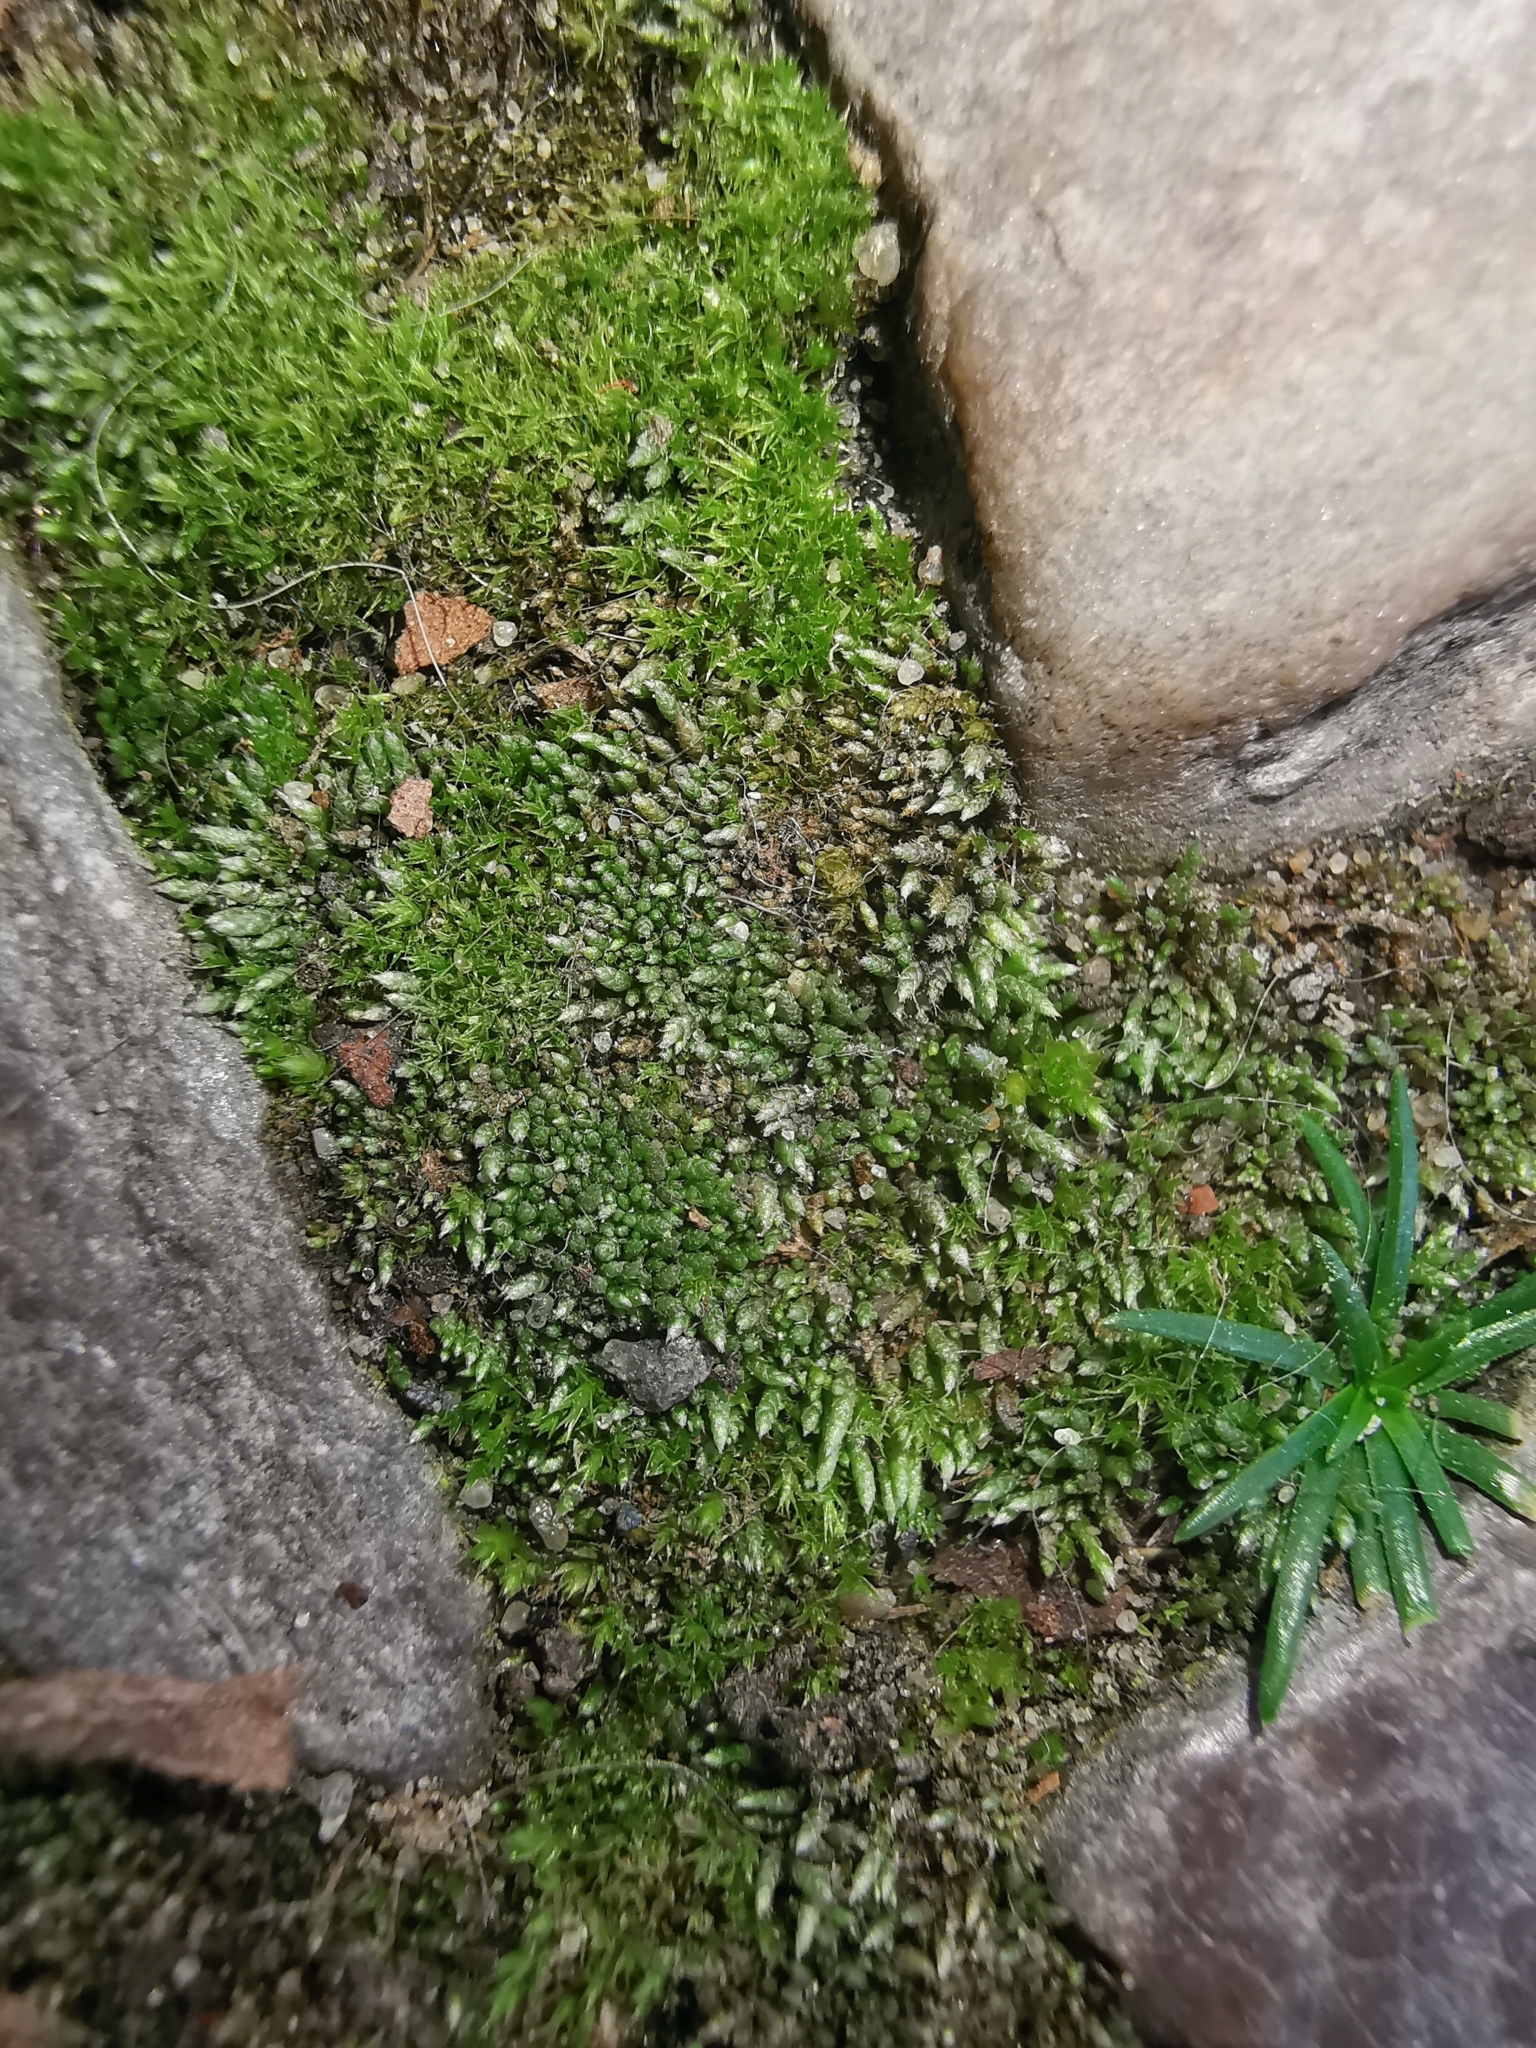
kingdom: Plantae
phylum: Bryophyta
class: Bryopsida
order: Bryales
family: Bryaceae
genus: Bryum
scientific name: Bryum argenteum
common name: Silver-moss
